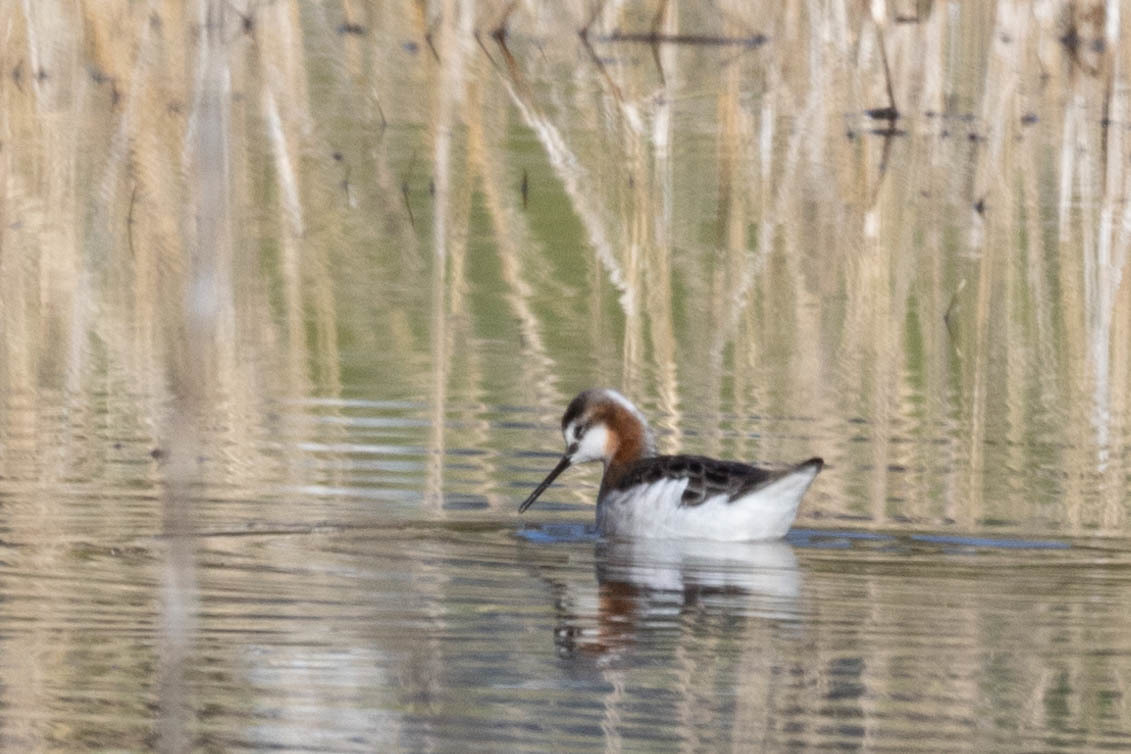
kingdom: Animalia
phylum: Chordata
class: Aves
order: Charadriiformes
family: Scolopacidae
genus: Phalaropus
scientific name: Phalaropus tricolor
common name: Wilson's phalarope
